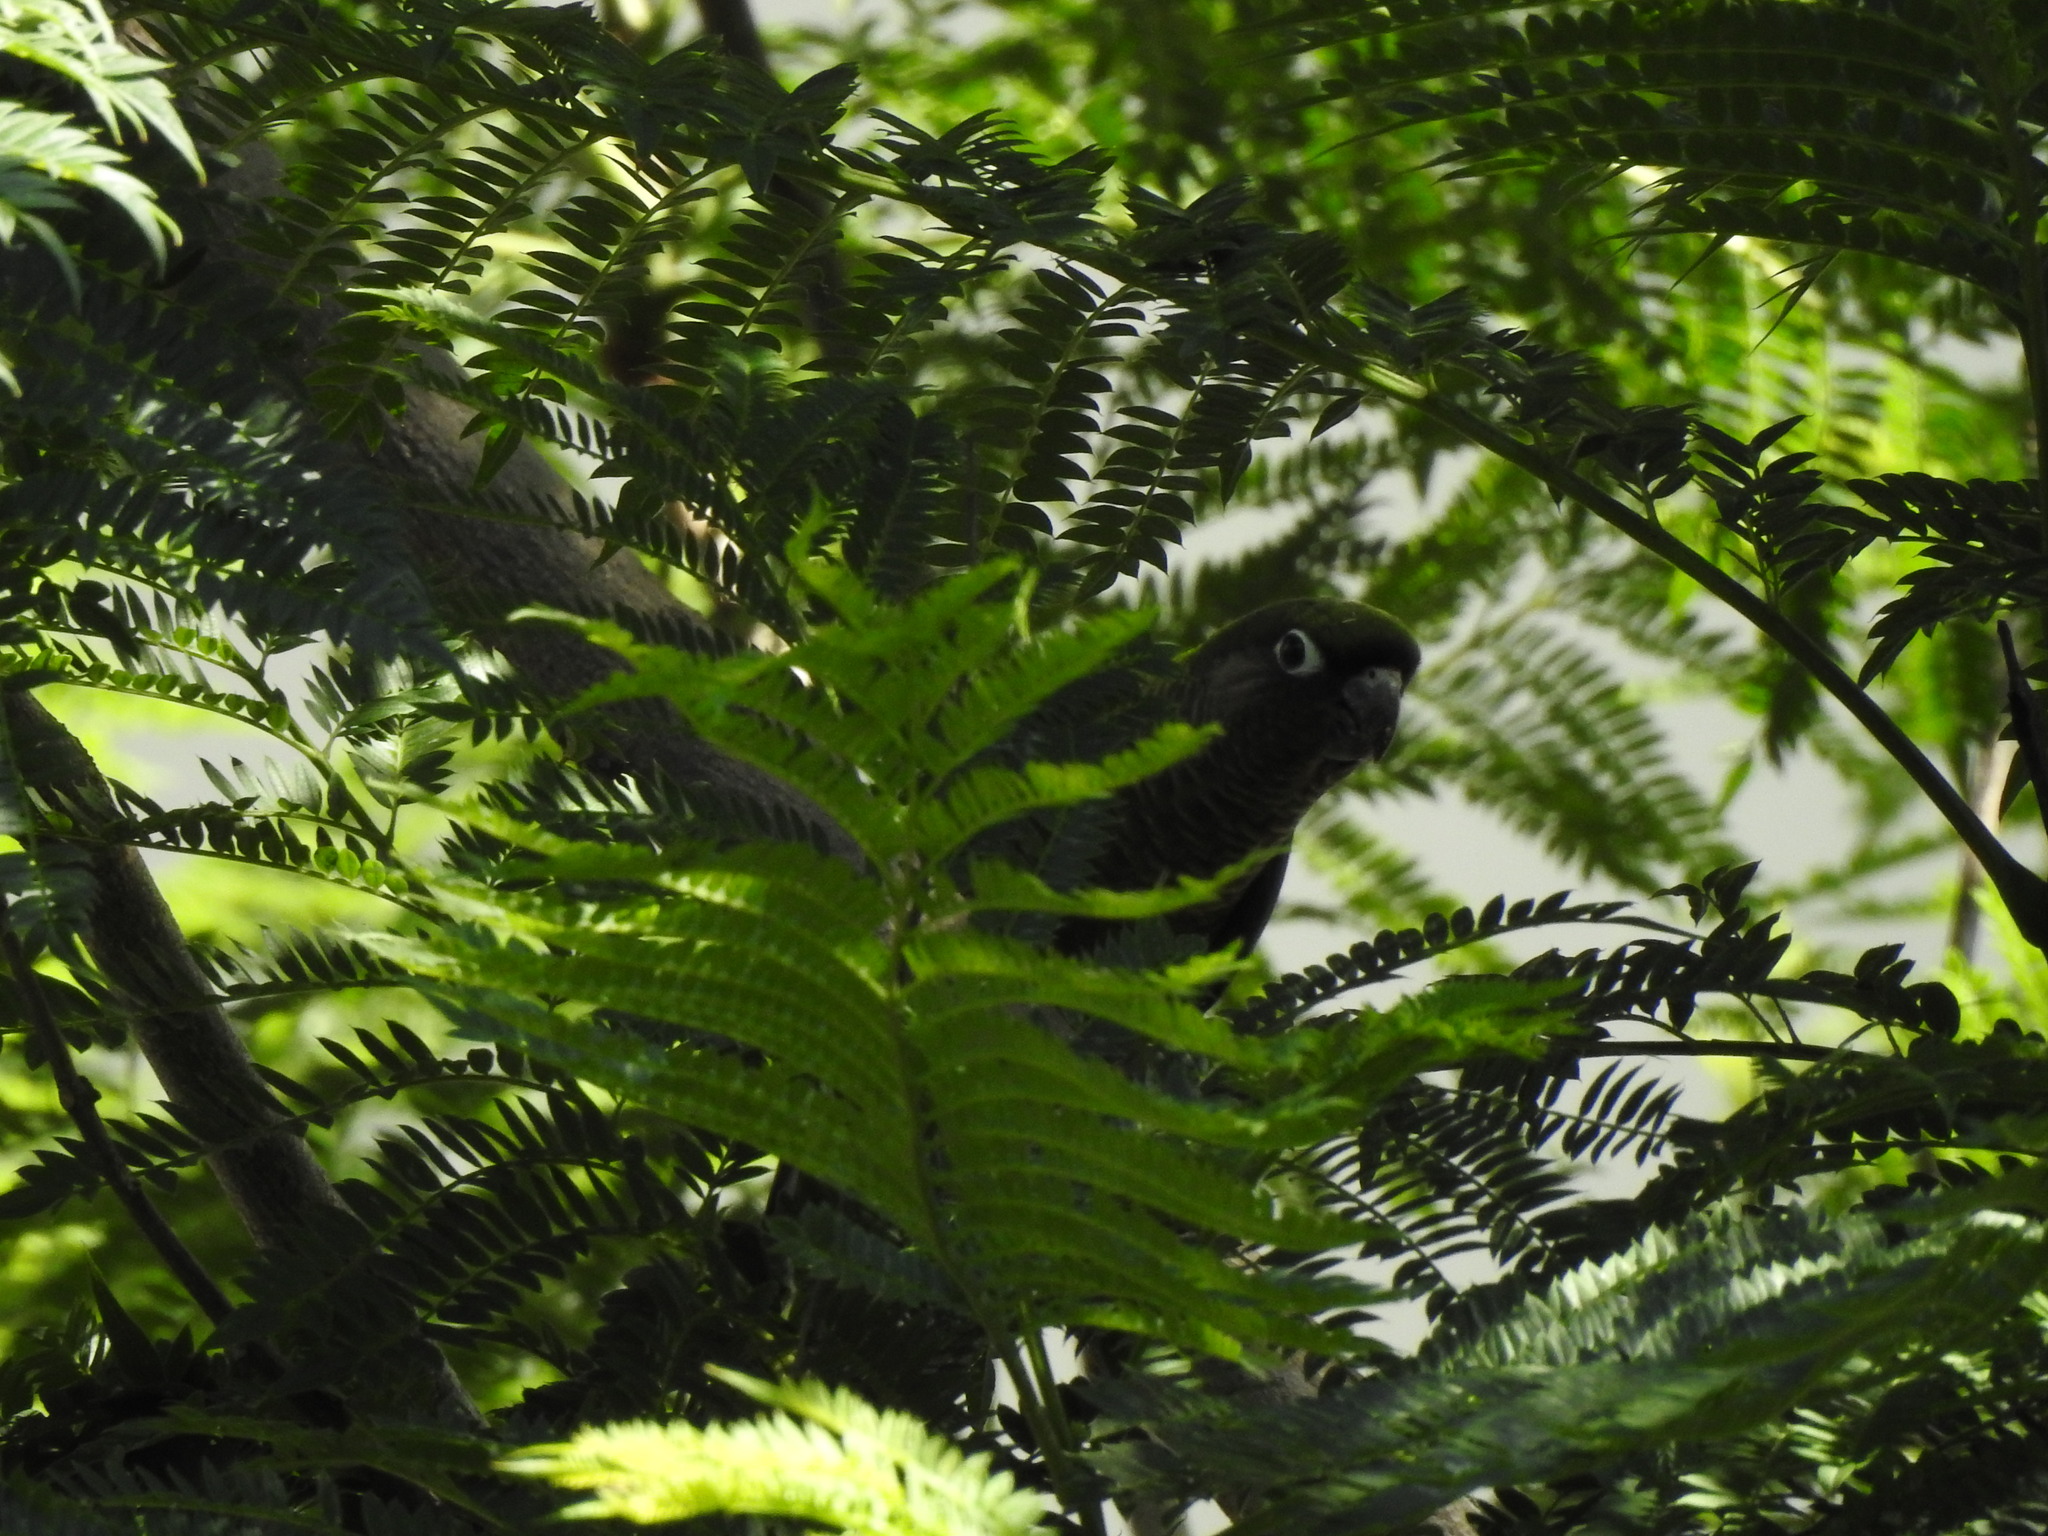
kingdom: Animalia
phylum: Chordata
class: Aves
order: Psittaciformes
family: Psittacidae
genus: Pyrrhura
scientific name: Pyrrhura frontalis
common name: Maroon-bellied parakeet
